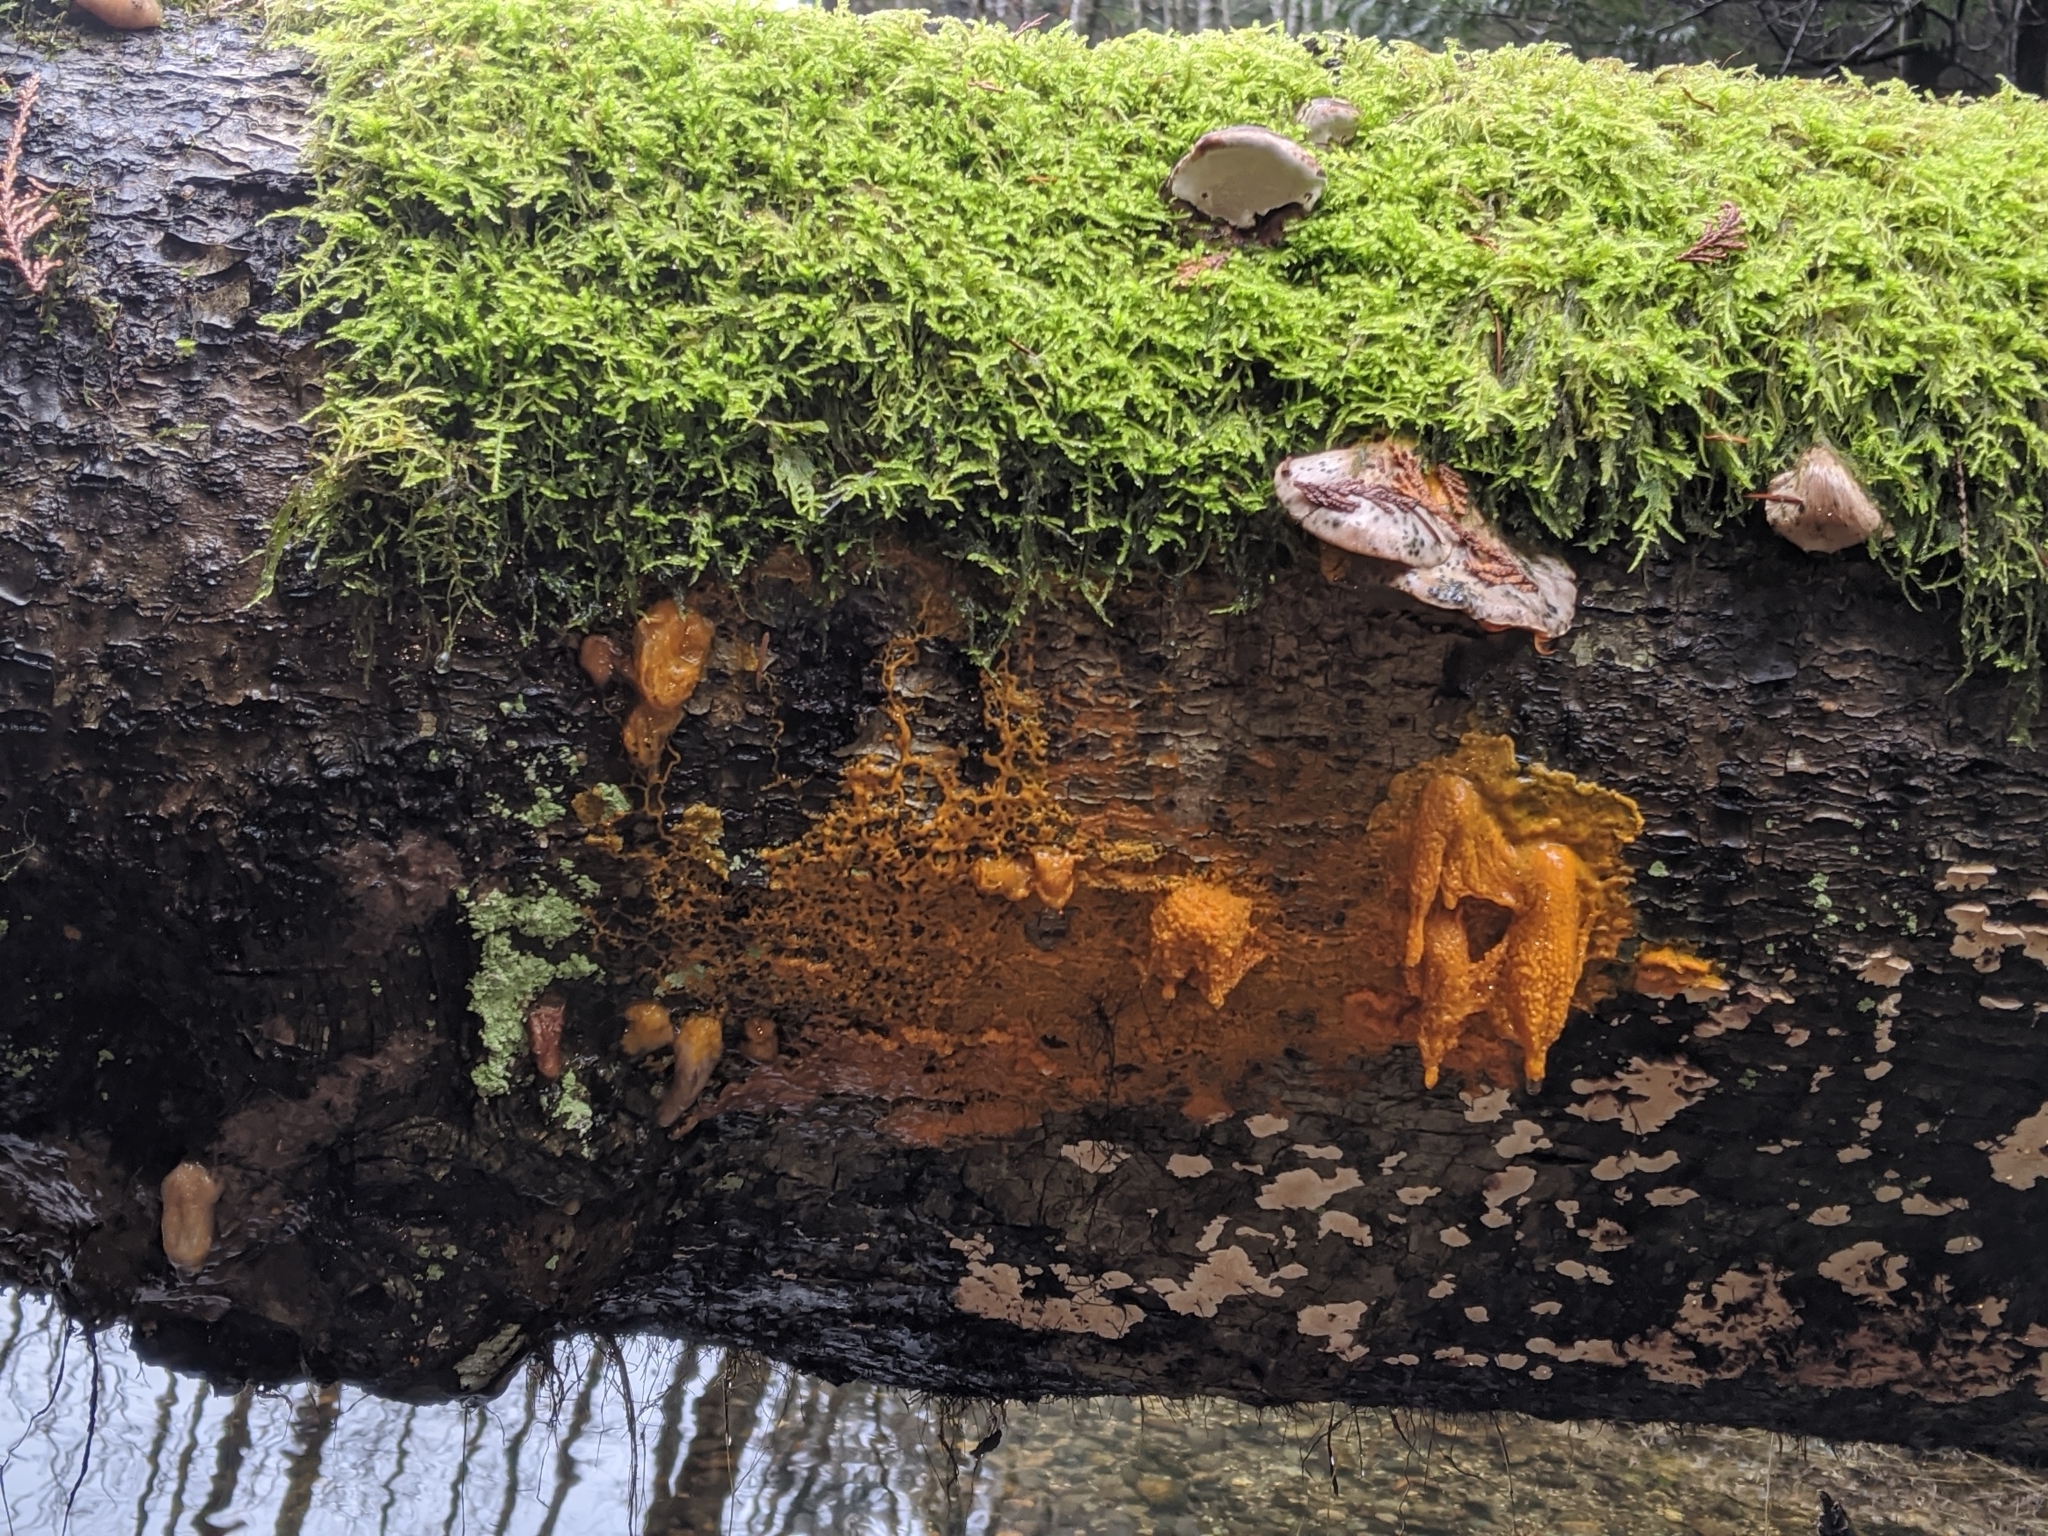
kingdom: Protozoa
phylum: Mycetozoa
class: Myxomycetes
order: Physarales
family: Physaraceae
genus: Badhamia
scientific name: Badhamia utricularis
